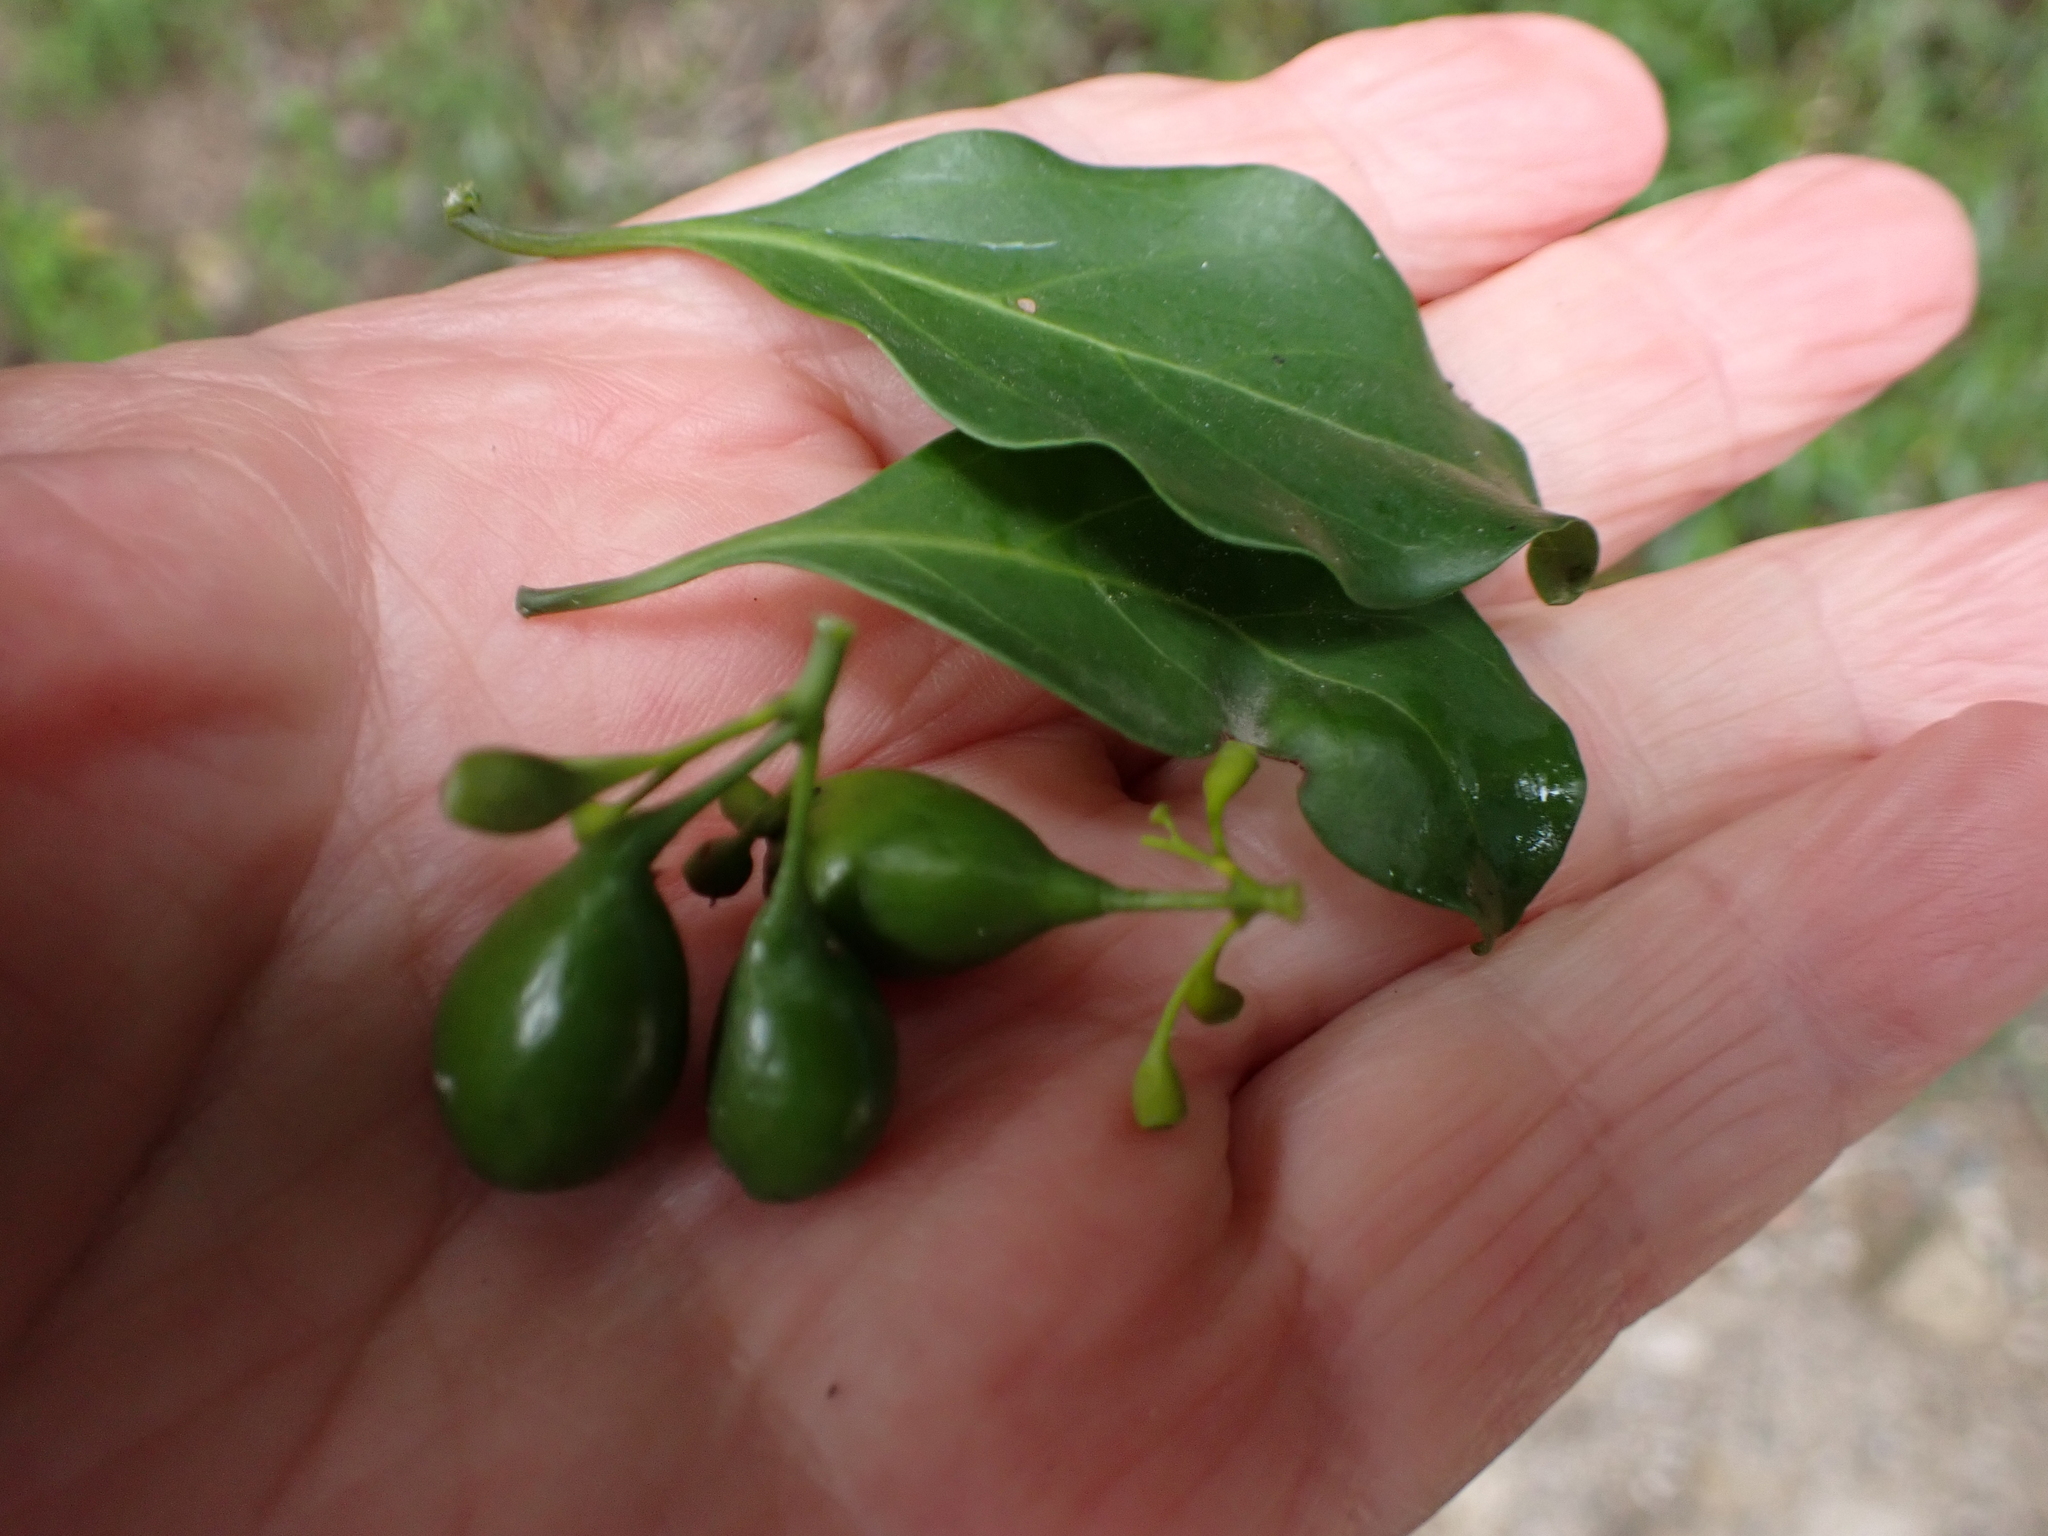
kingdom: Plantae
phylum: Tracheophyta
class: Magnoliopsida
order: Gentianales
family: Rubiaceae
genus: Canthium
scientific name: Canthium inerme
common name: Unarmed turkey-berry
